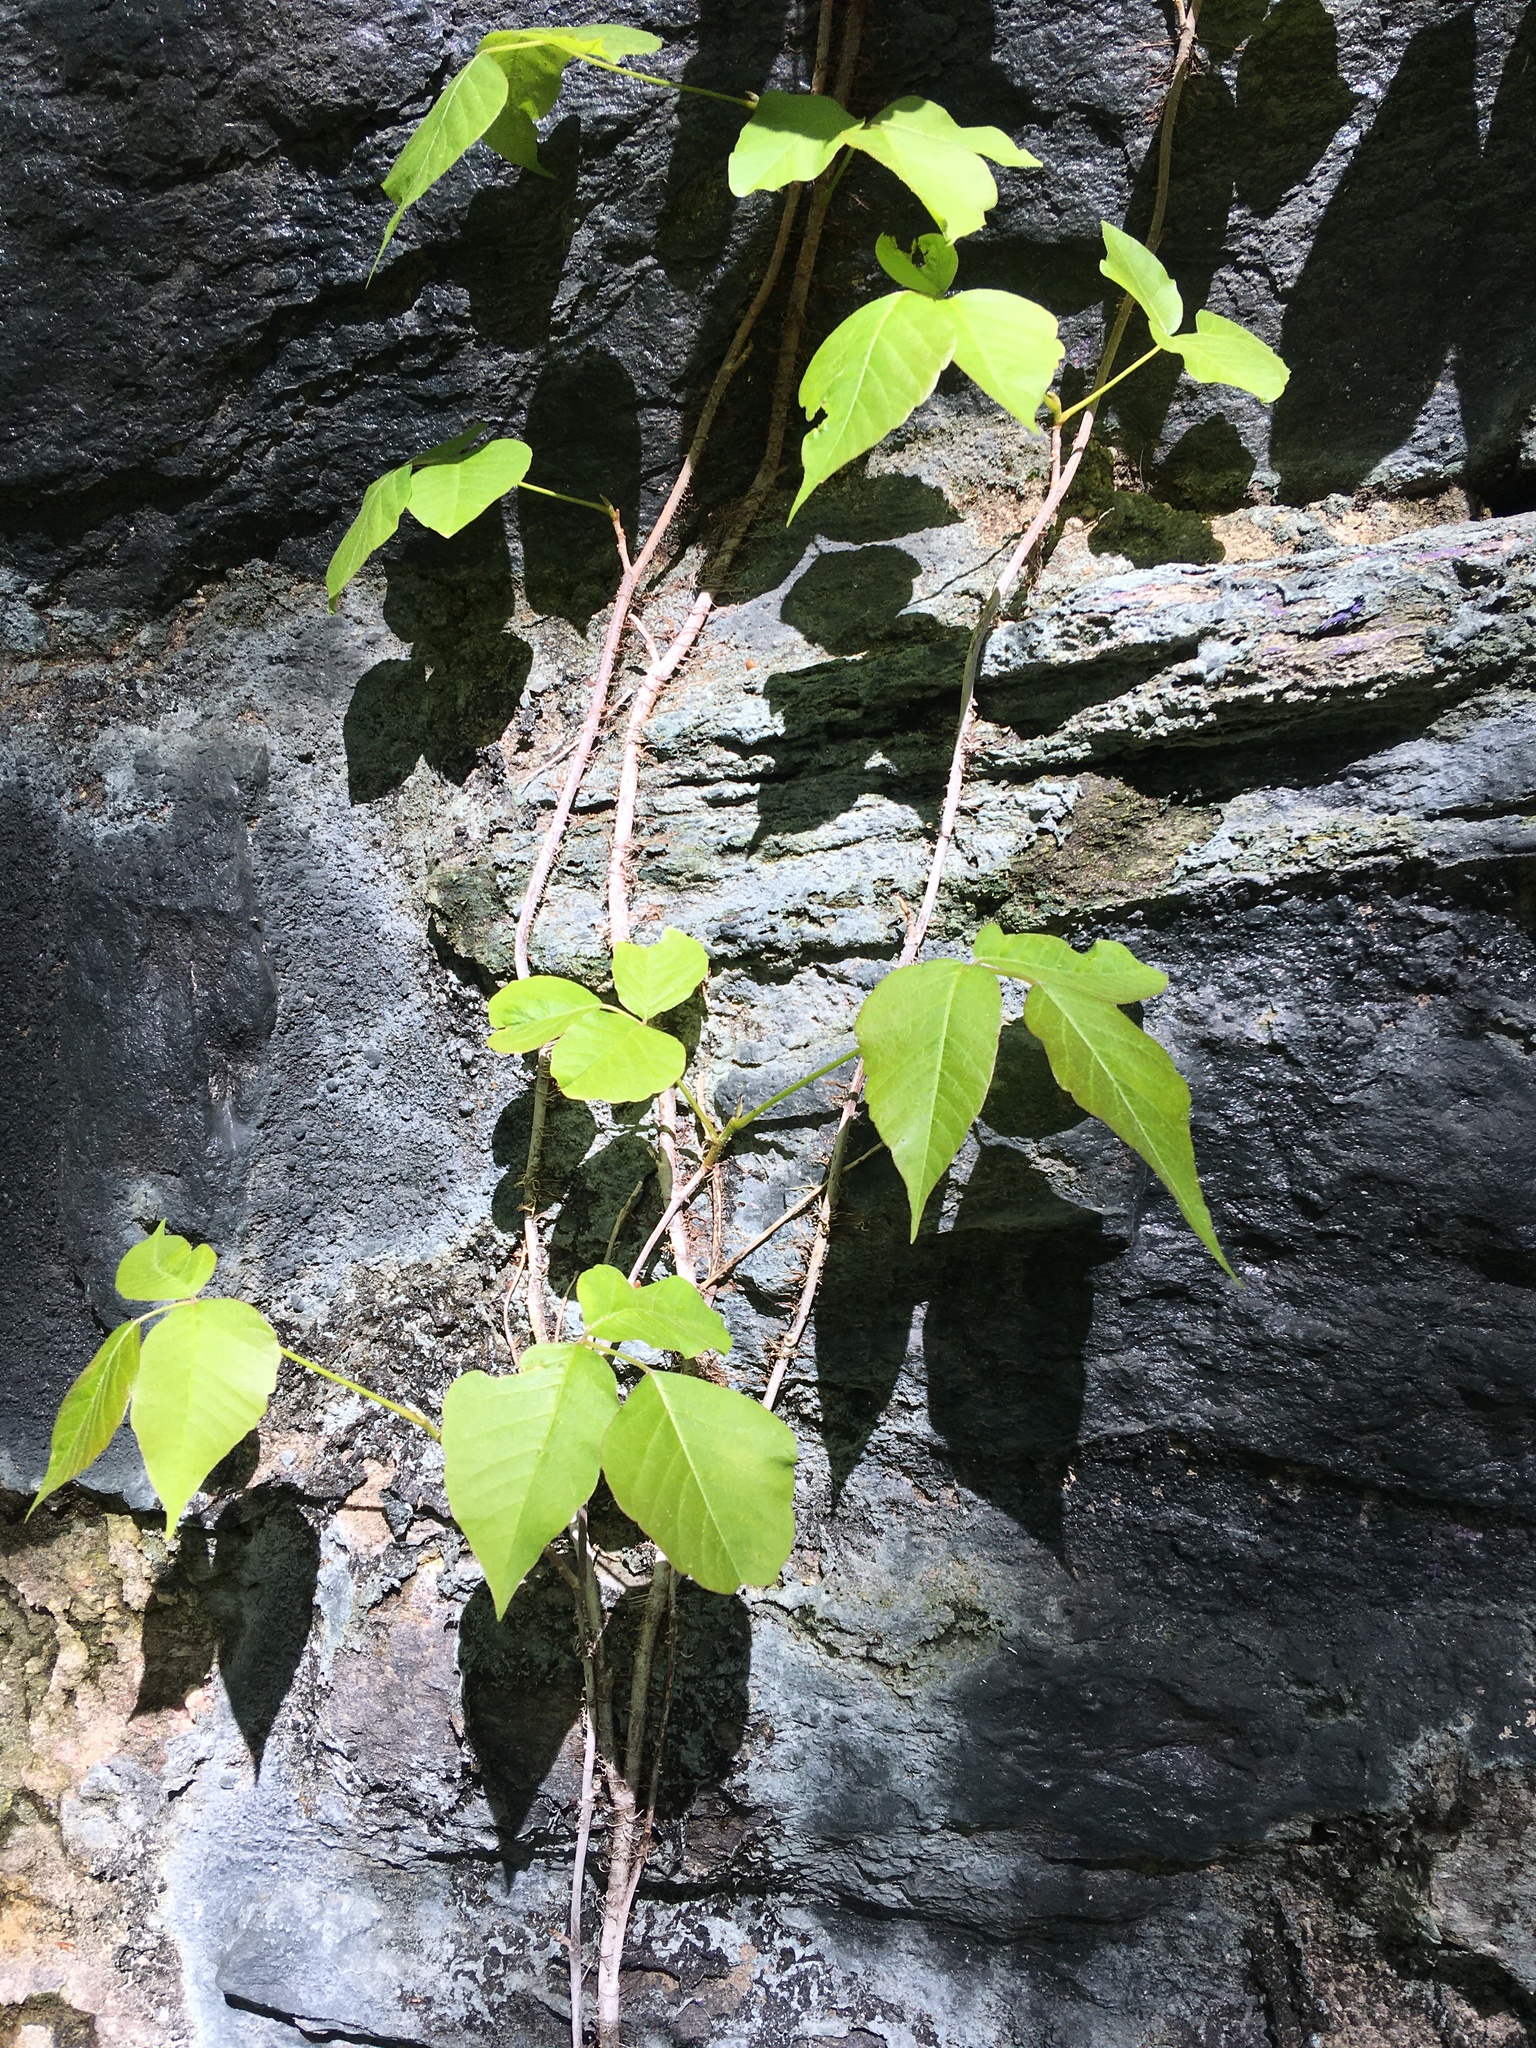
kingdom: Plantae
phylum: Tracheophyta
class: Magnoliopsida
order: Sapindales
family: Anacardiaceae
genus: Toxicodendron
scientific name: Toxicodendron radicans
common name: Poison ivy
